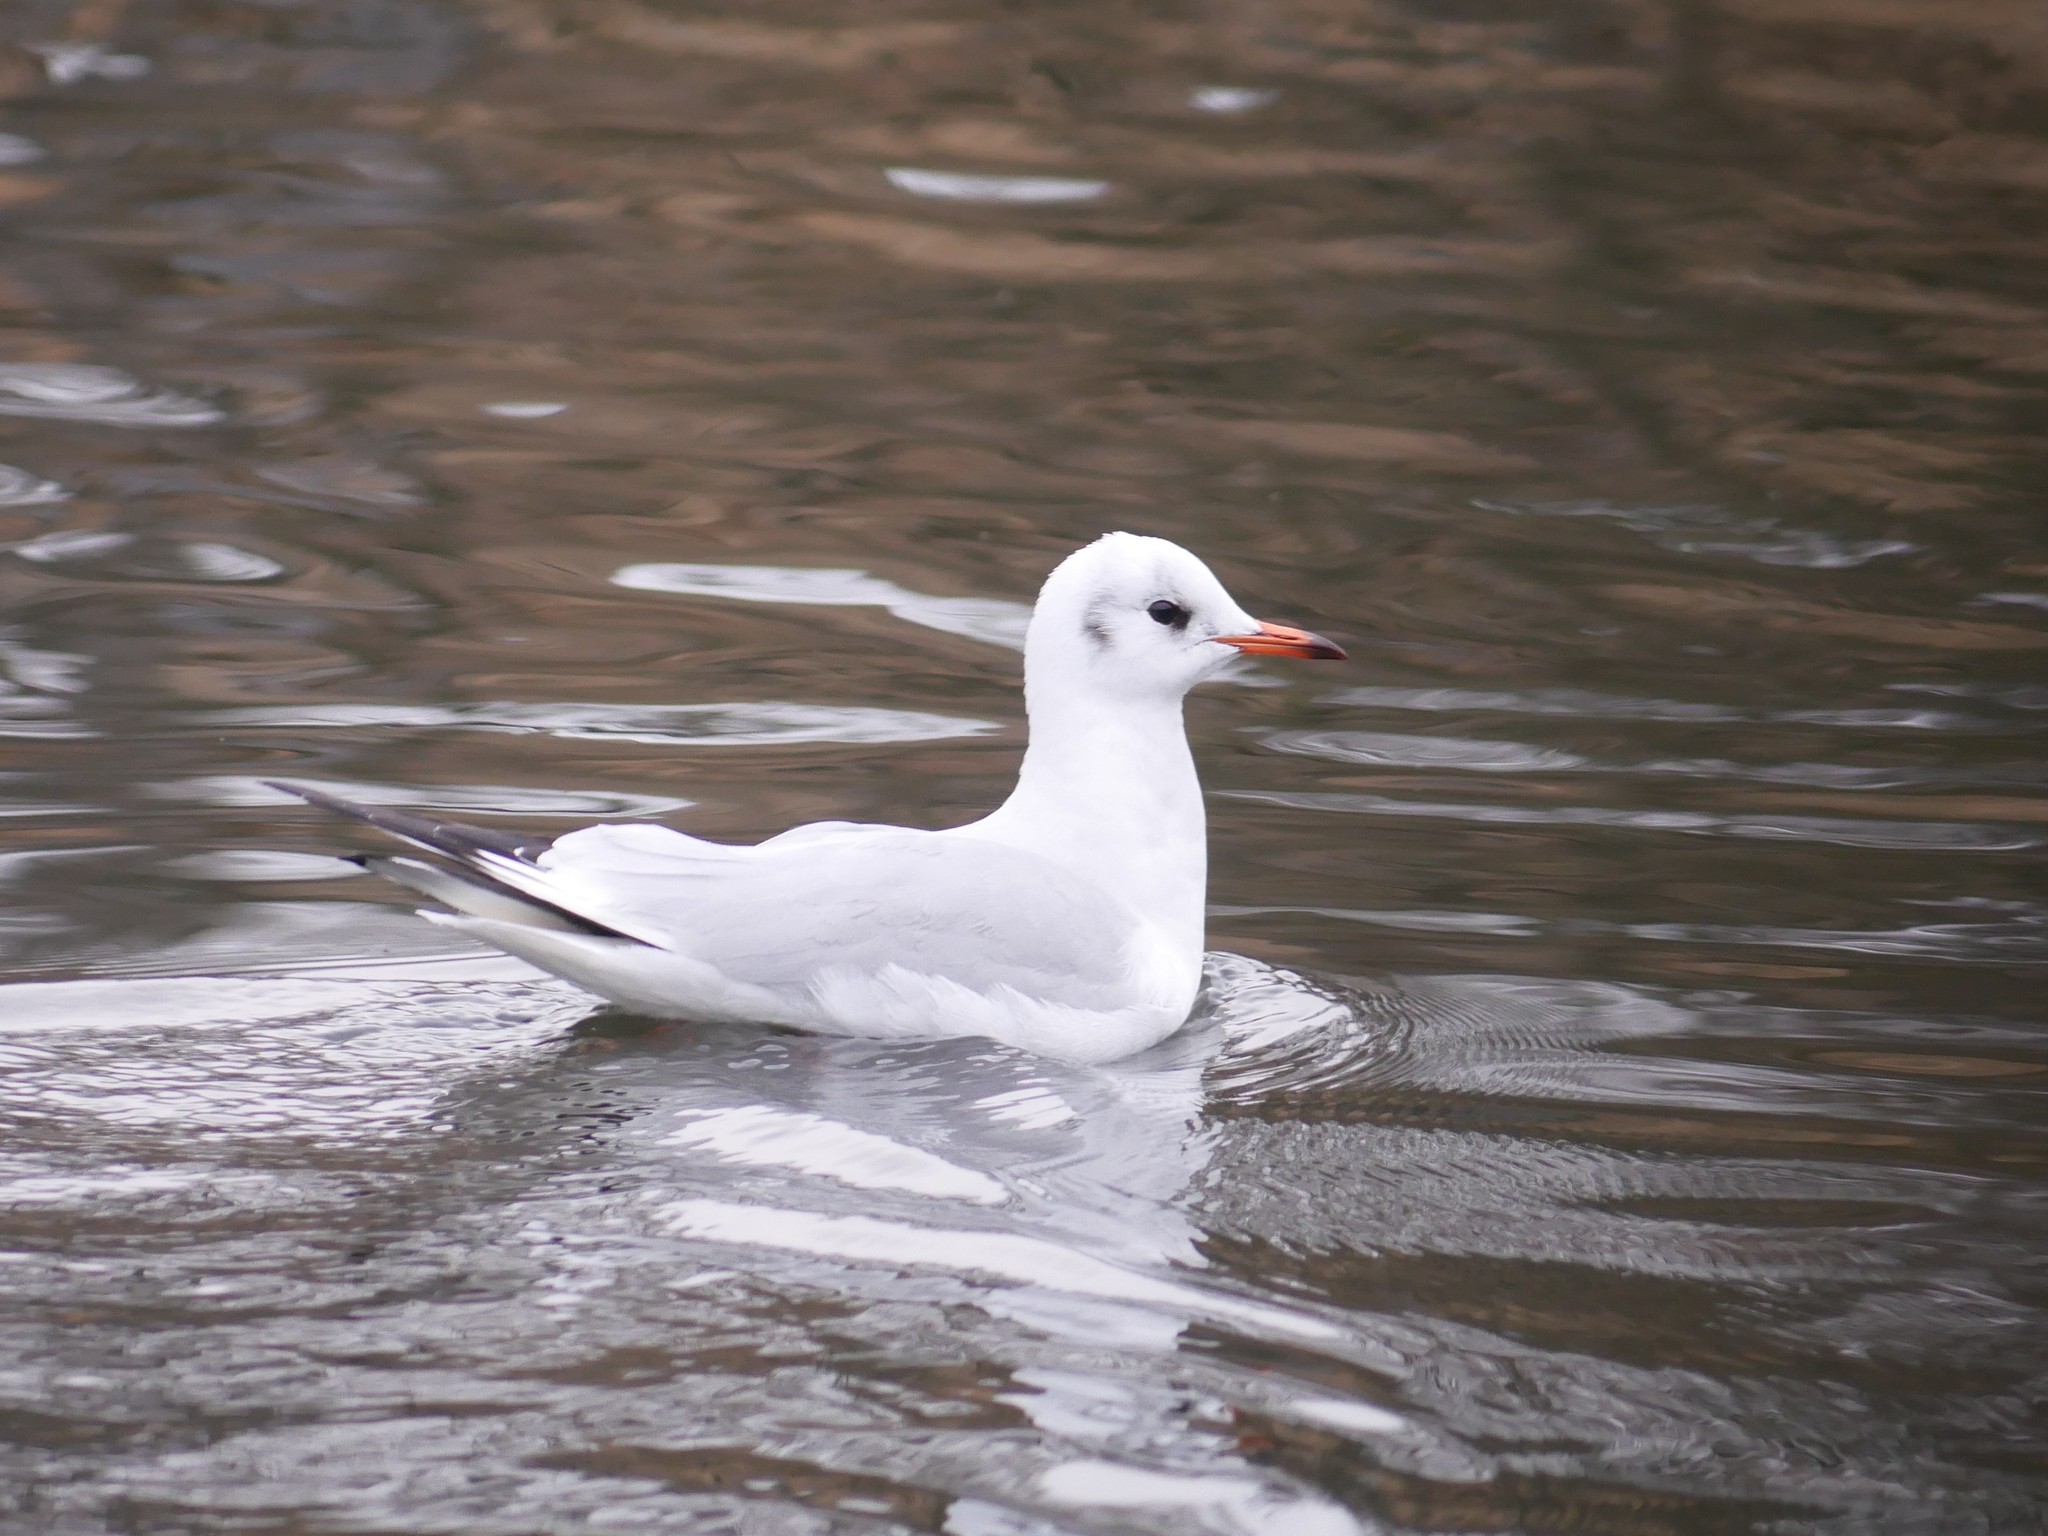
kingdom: Animalia
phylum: Chordata
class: Aves
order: Charadriiformes
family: Laridae
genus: Chroicocephalus
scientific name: Chroicocephalus ridibundus
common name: Black-headed gull
